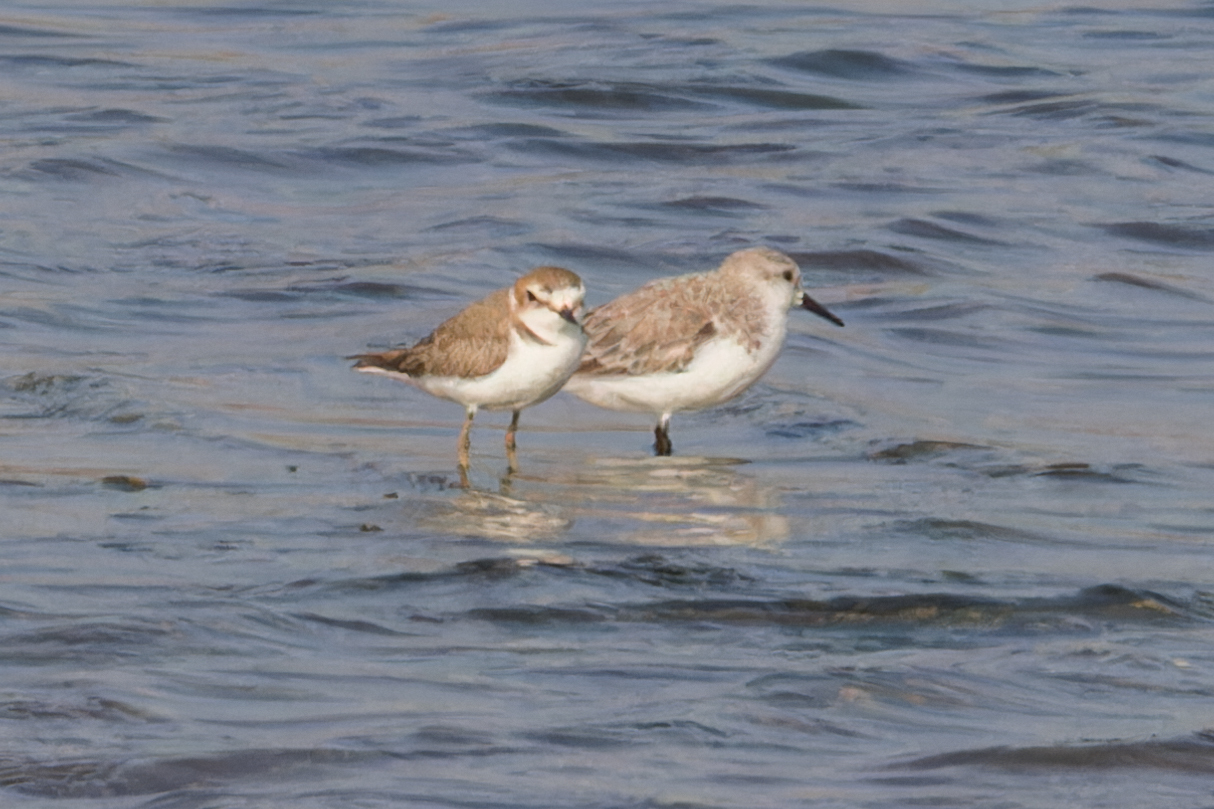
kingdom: Animalia
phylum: Chordata
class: Aves
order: Charadriiformes
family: Scolopacidae
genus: Calidris
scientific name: Calidris alba
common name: Sanderling
